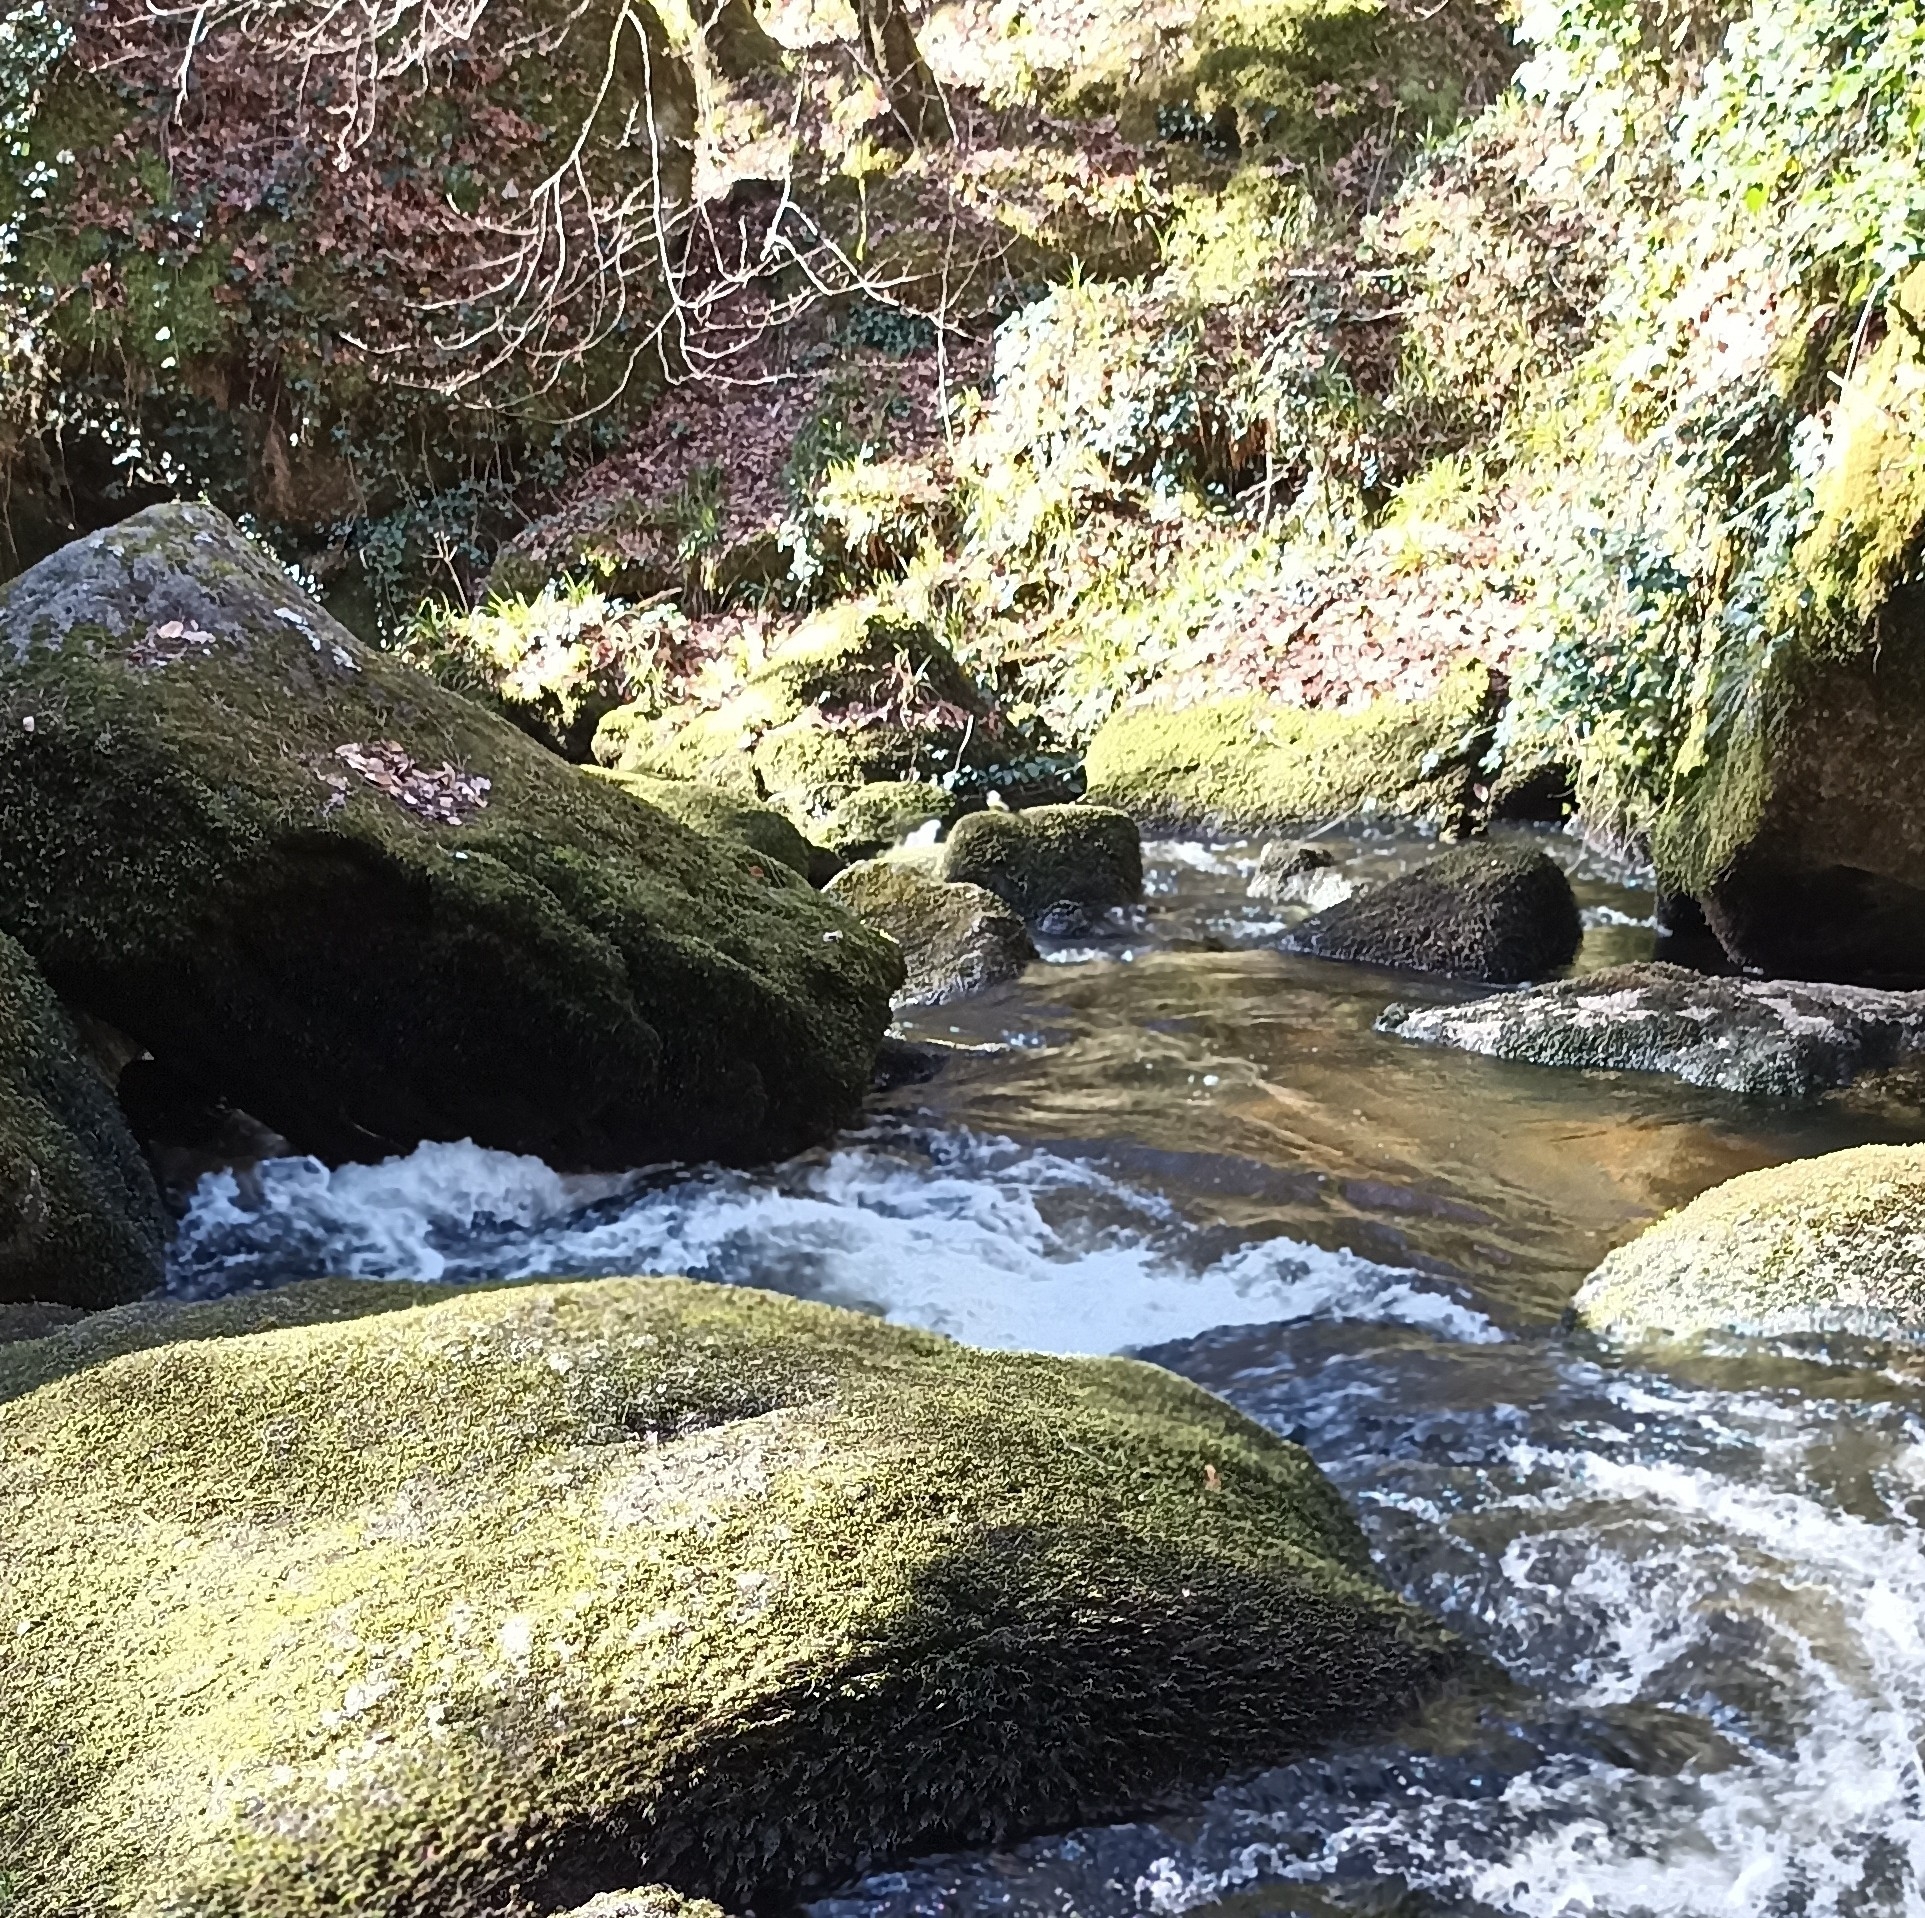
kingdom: Animalia
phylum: Chordata
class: Aves
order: Passeriformes
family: Motacillidae
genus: Motacilla
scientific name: Motacilla cinerea
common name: Grey wagtail
